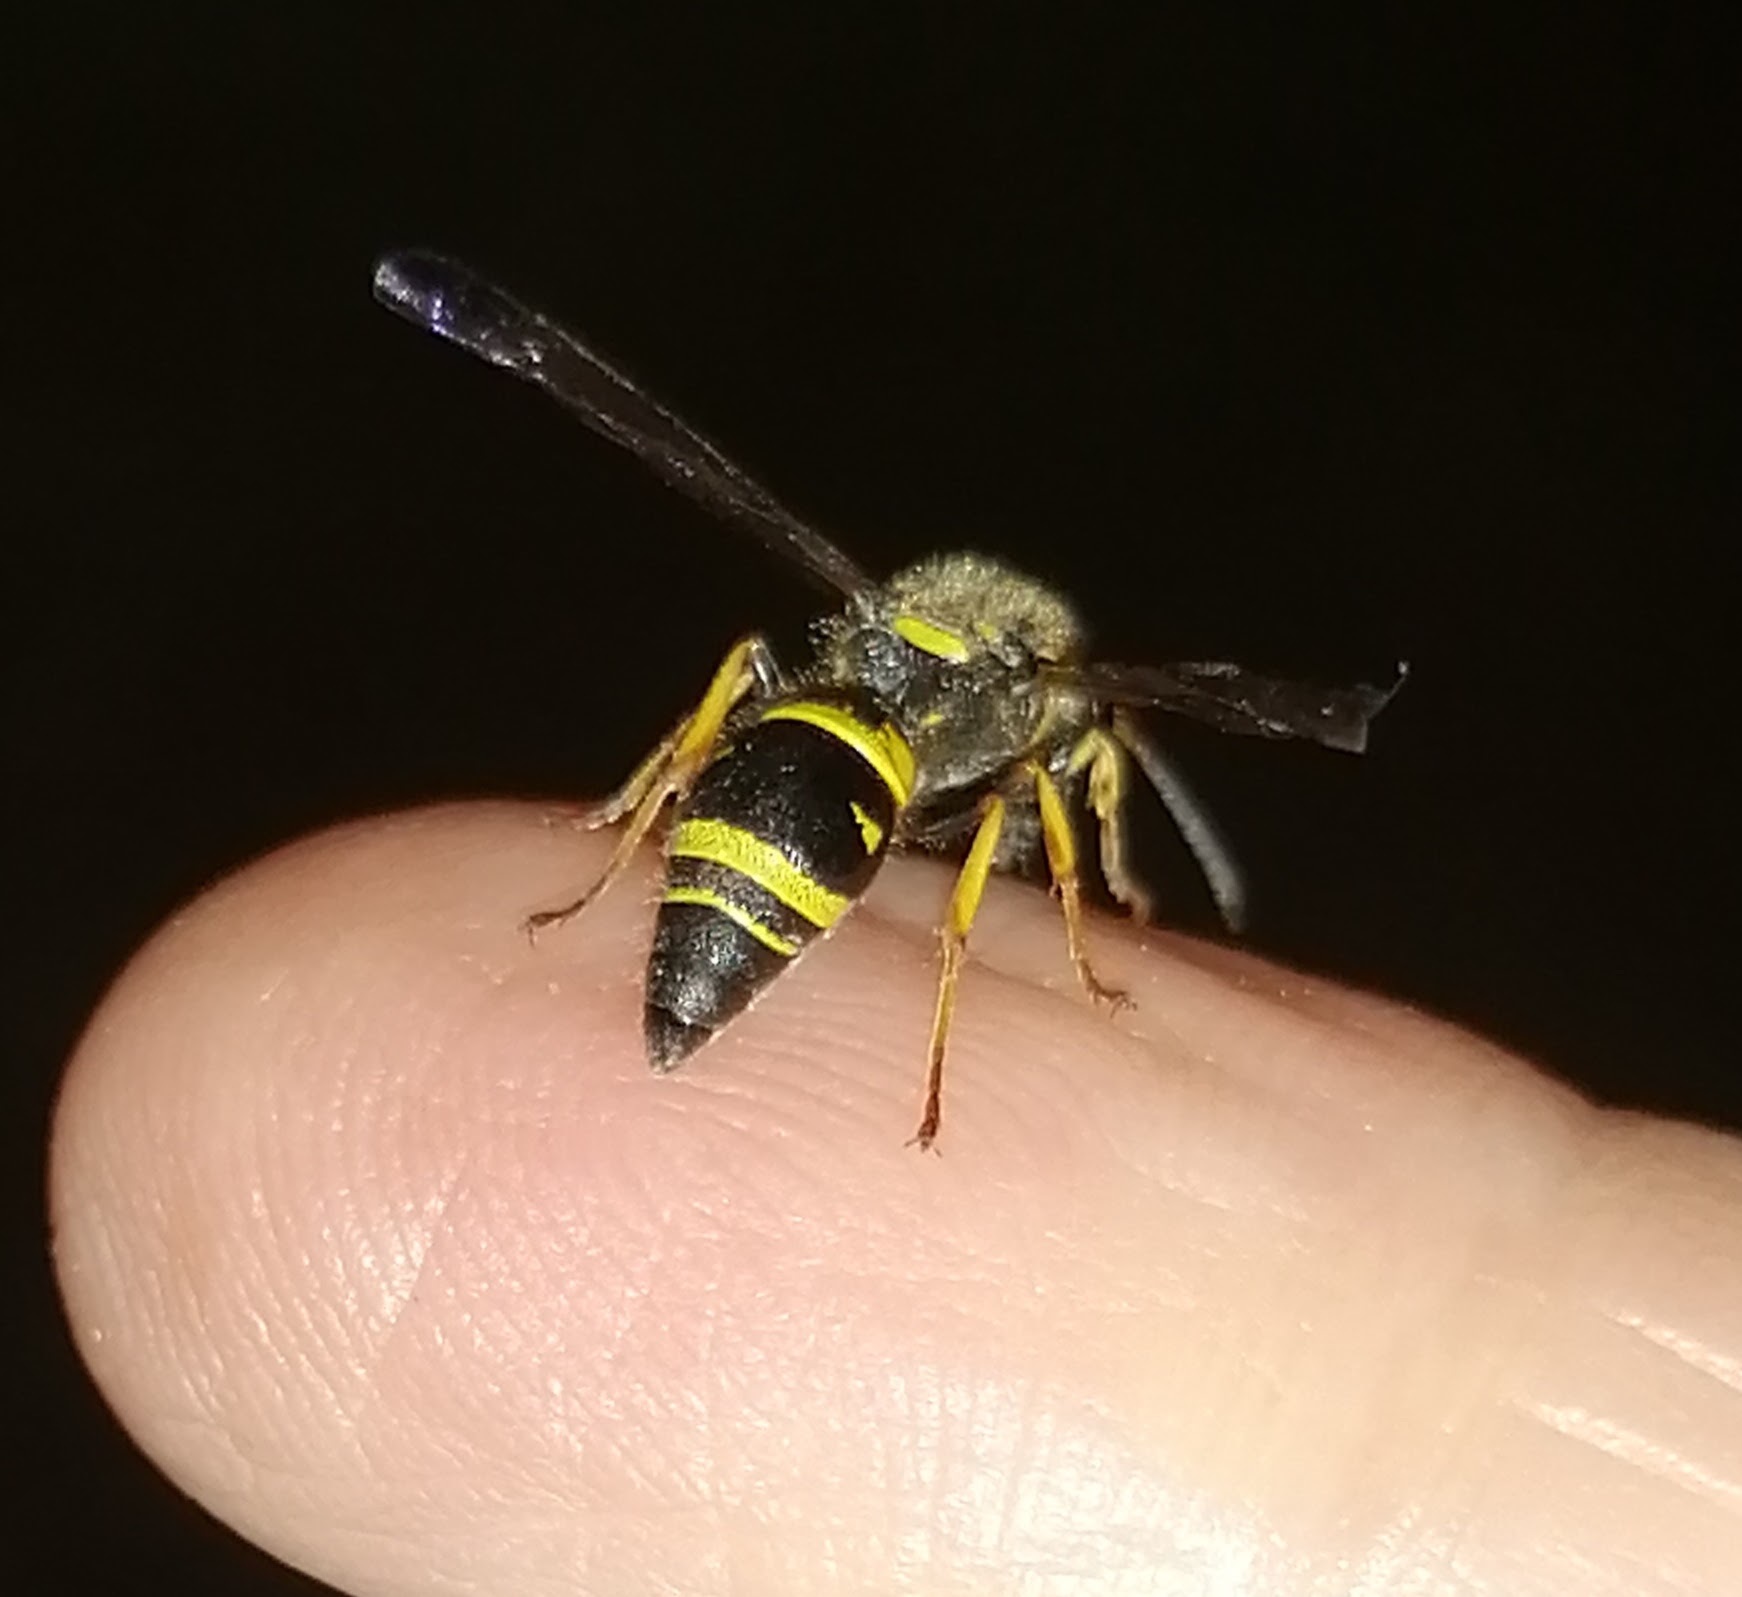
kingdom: Animalia
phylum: Arthropoda
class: Insecta
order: Hymenoptera
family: Vespidae
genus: Ancistrocerus
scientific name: Ancistrocerus campestris
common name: Smiling mason wasp
